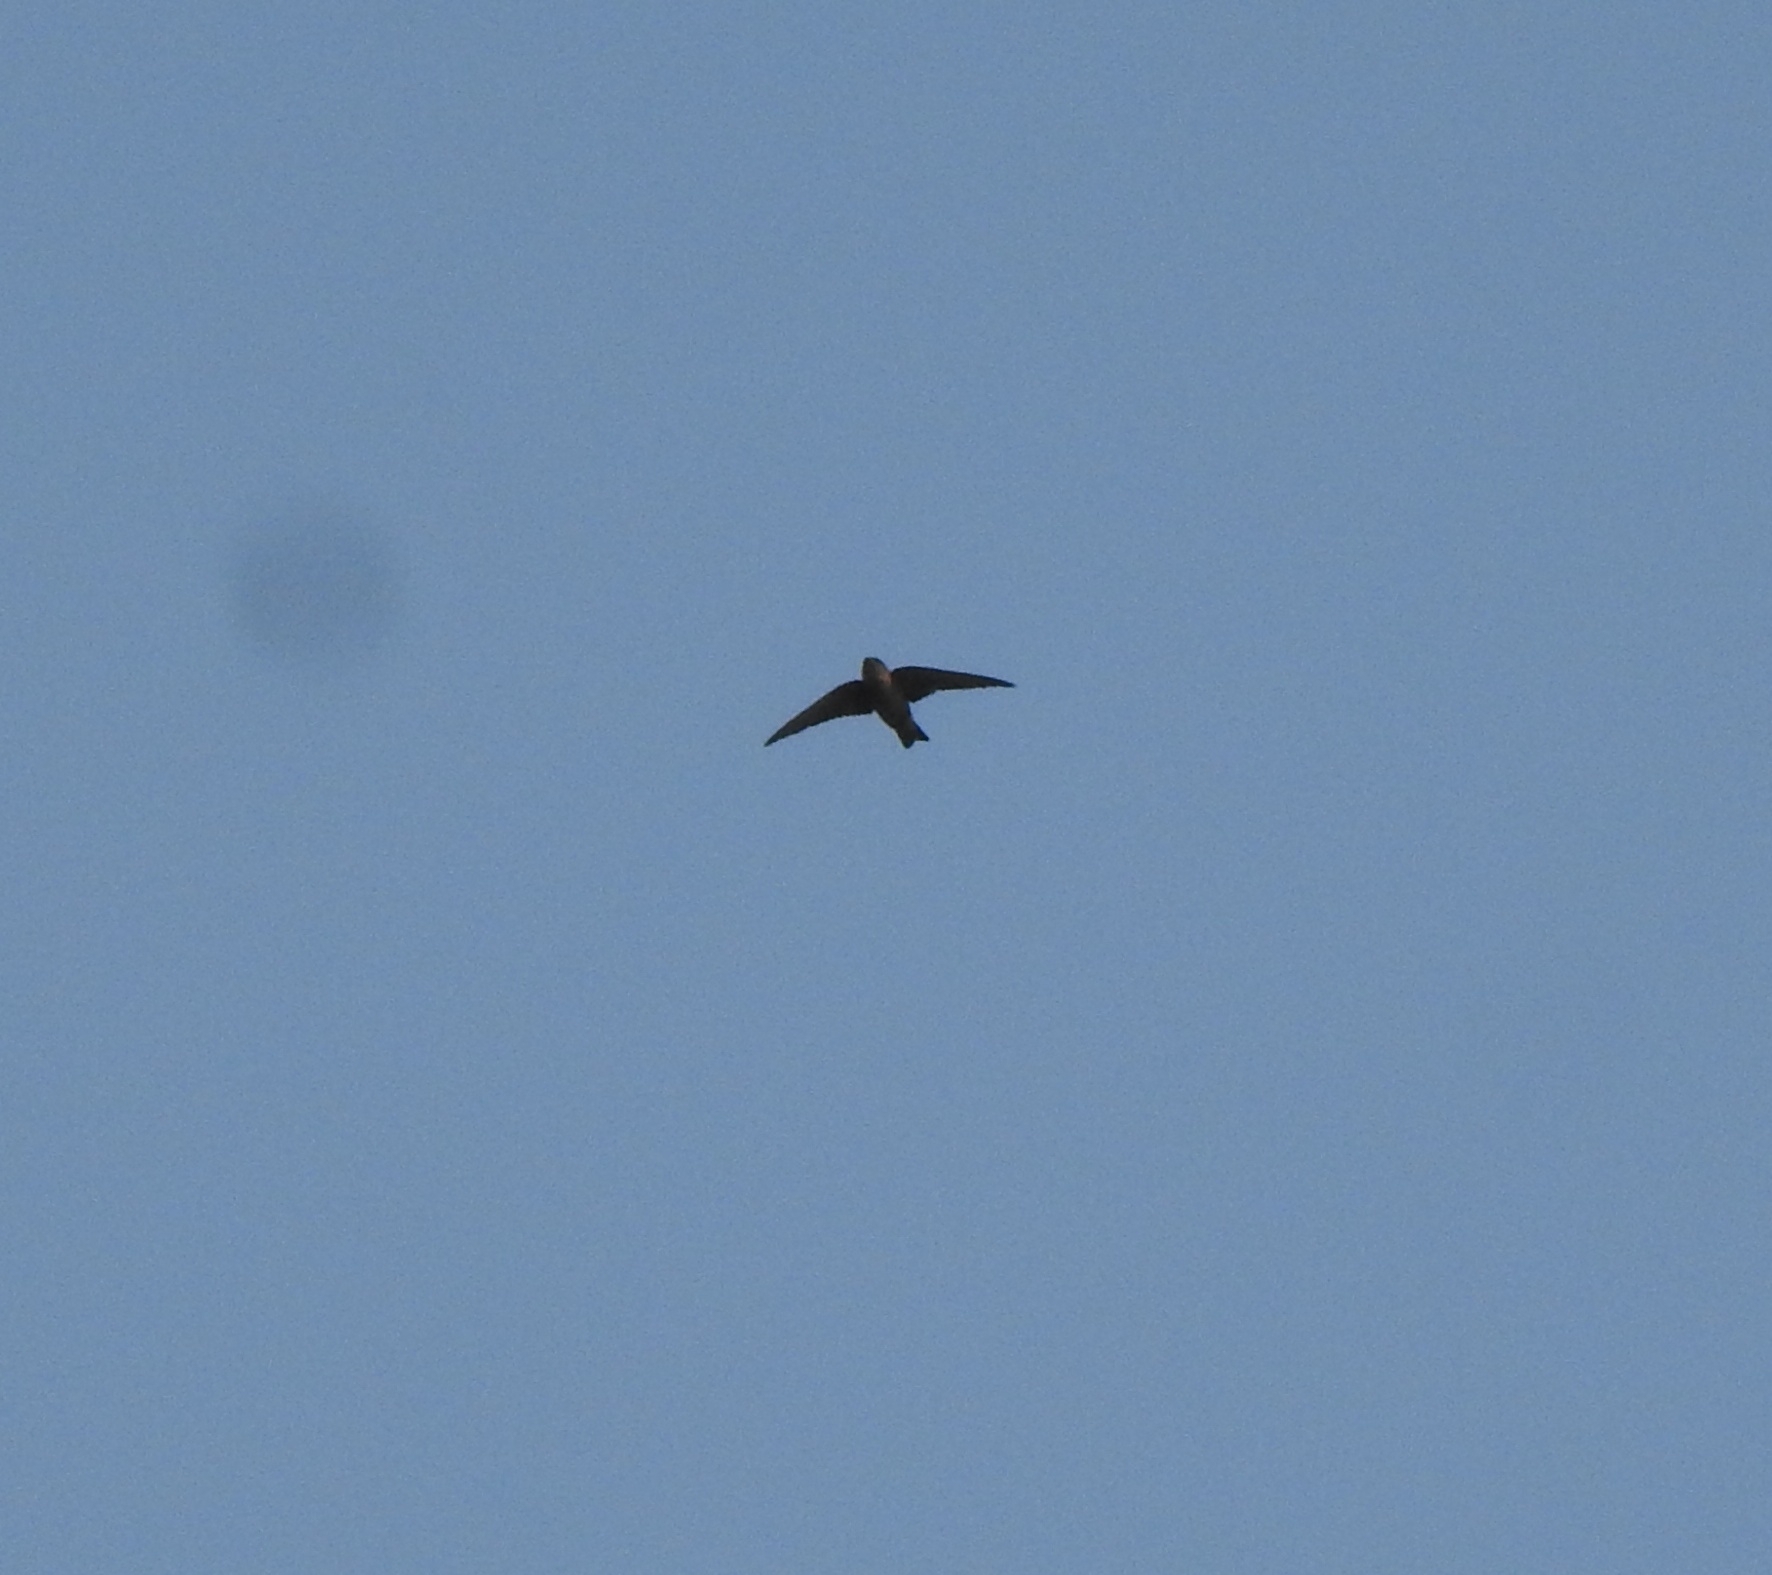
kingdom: Animalia
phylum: Chordata
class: Aves
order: Passeriformes
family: Hirundinidae
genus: Ptyonoprogne
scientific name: Ptyonoprogne concolor
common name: Dusky crag-martin
